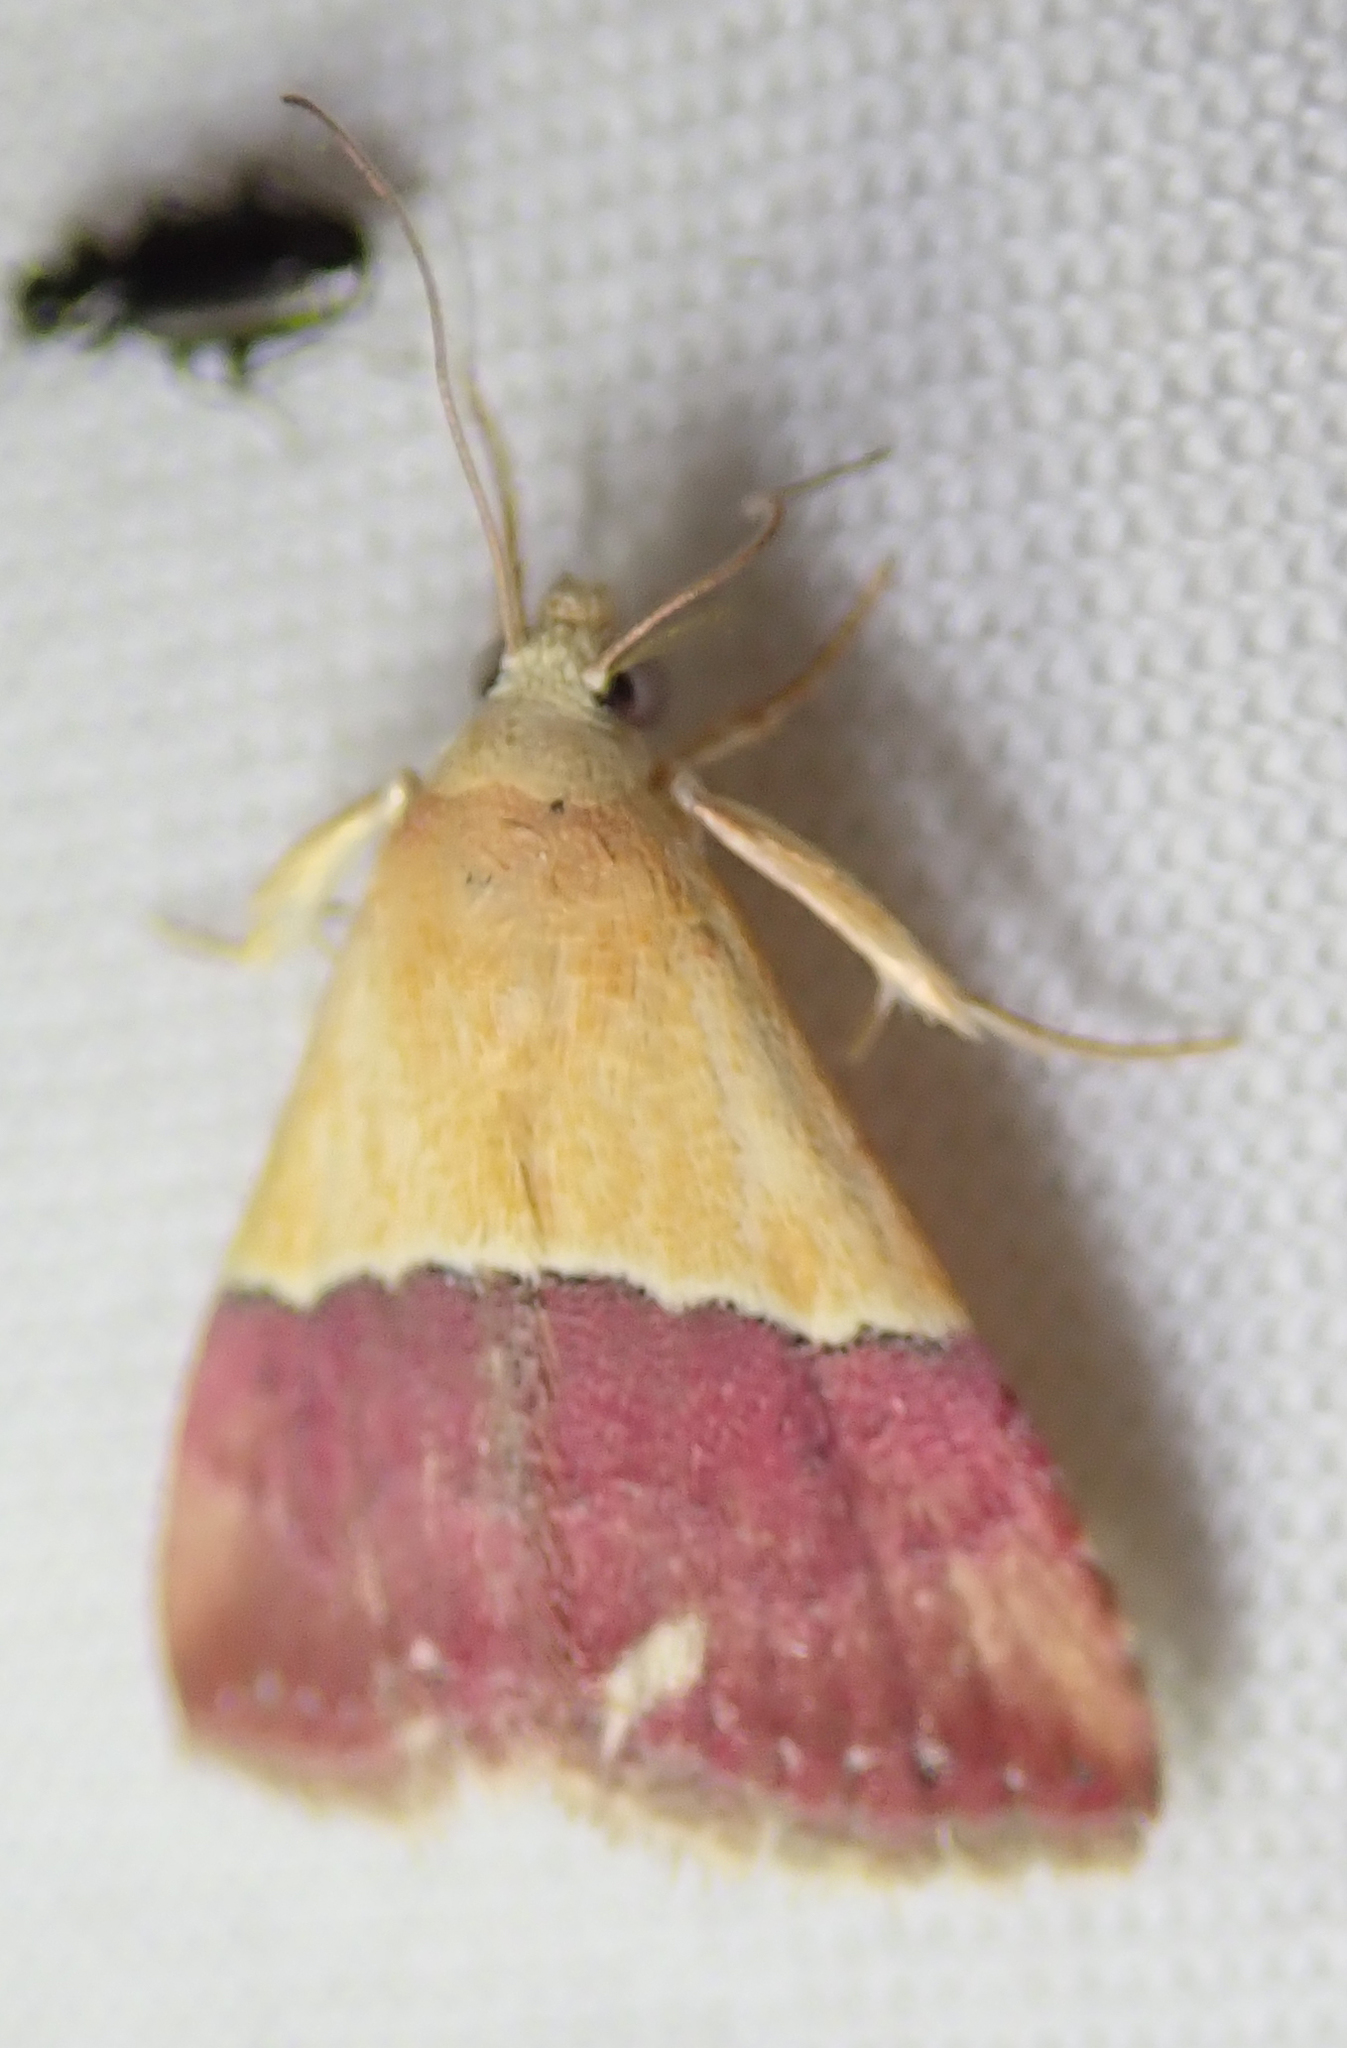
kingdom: Animalia
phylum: Arthropoda
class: Insecta
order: Lepidoptera
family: Noctuidae
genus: Eublemma
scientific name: Eublemma caffrorum
